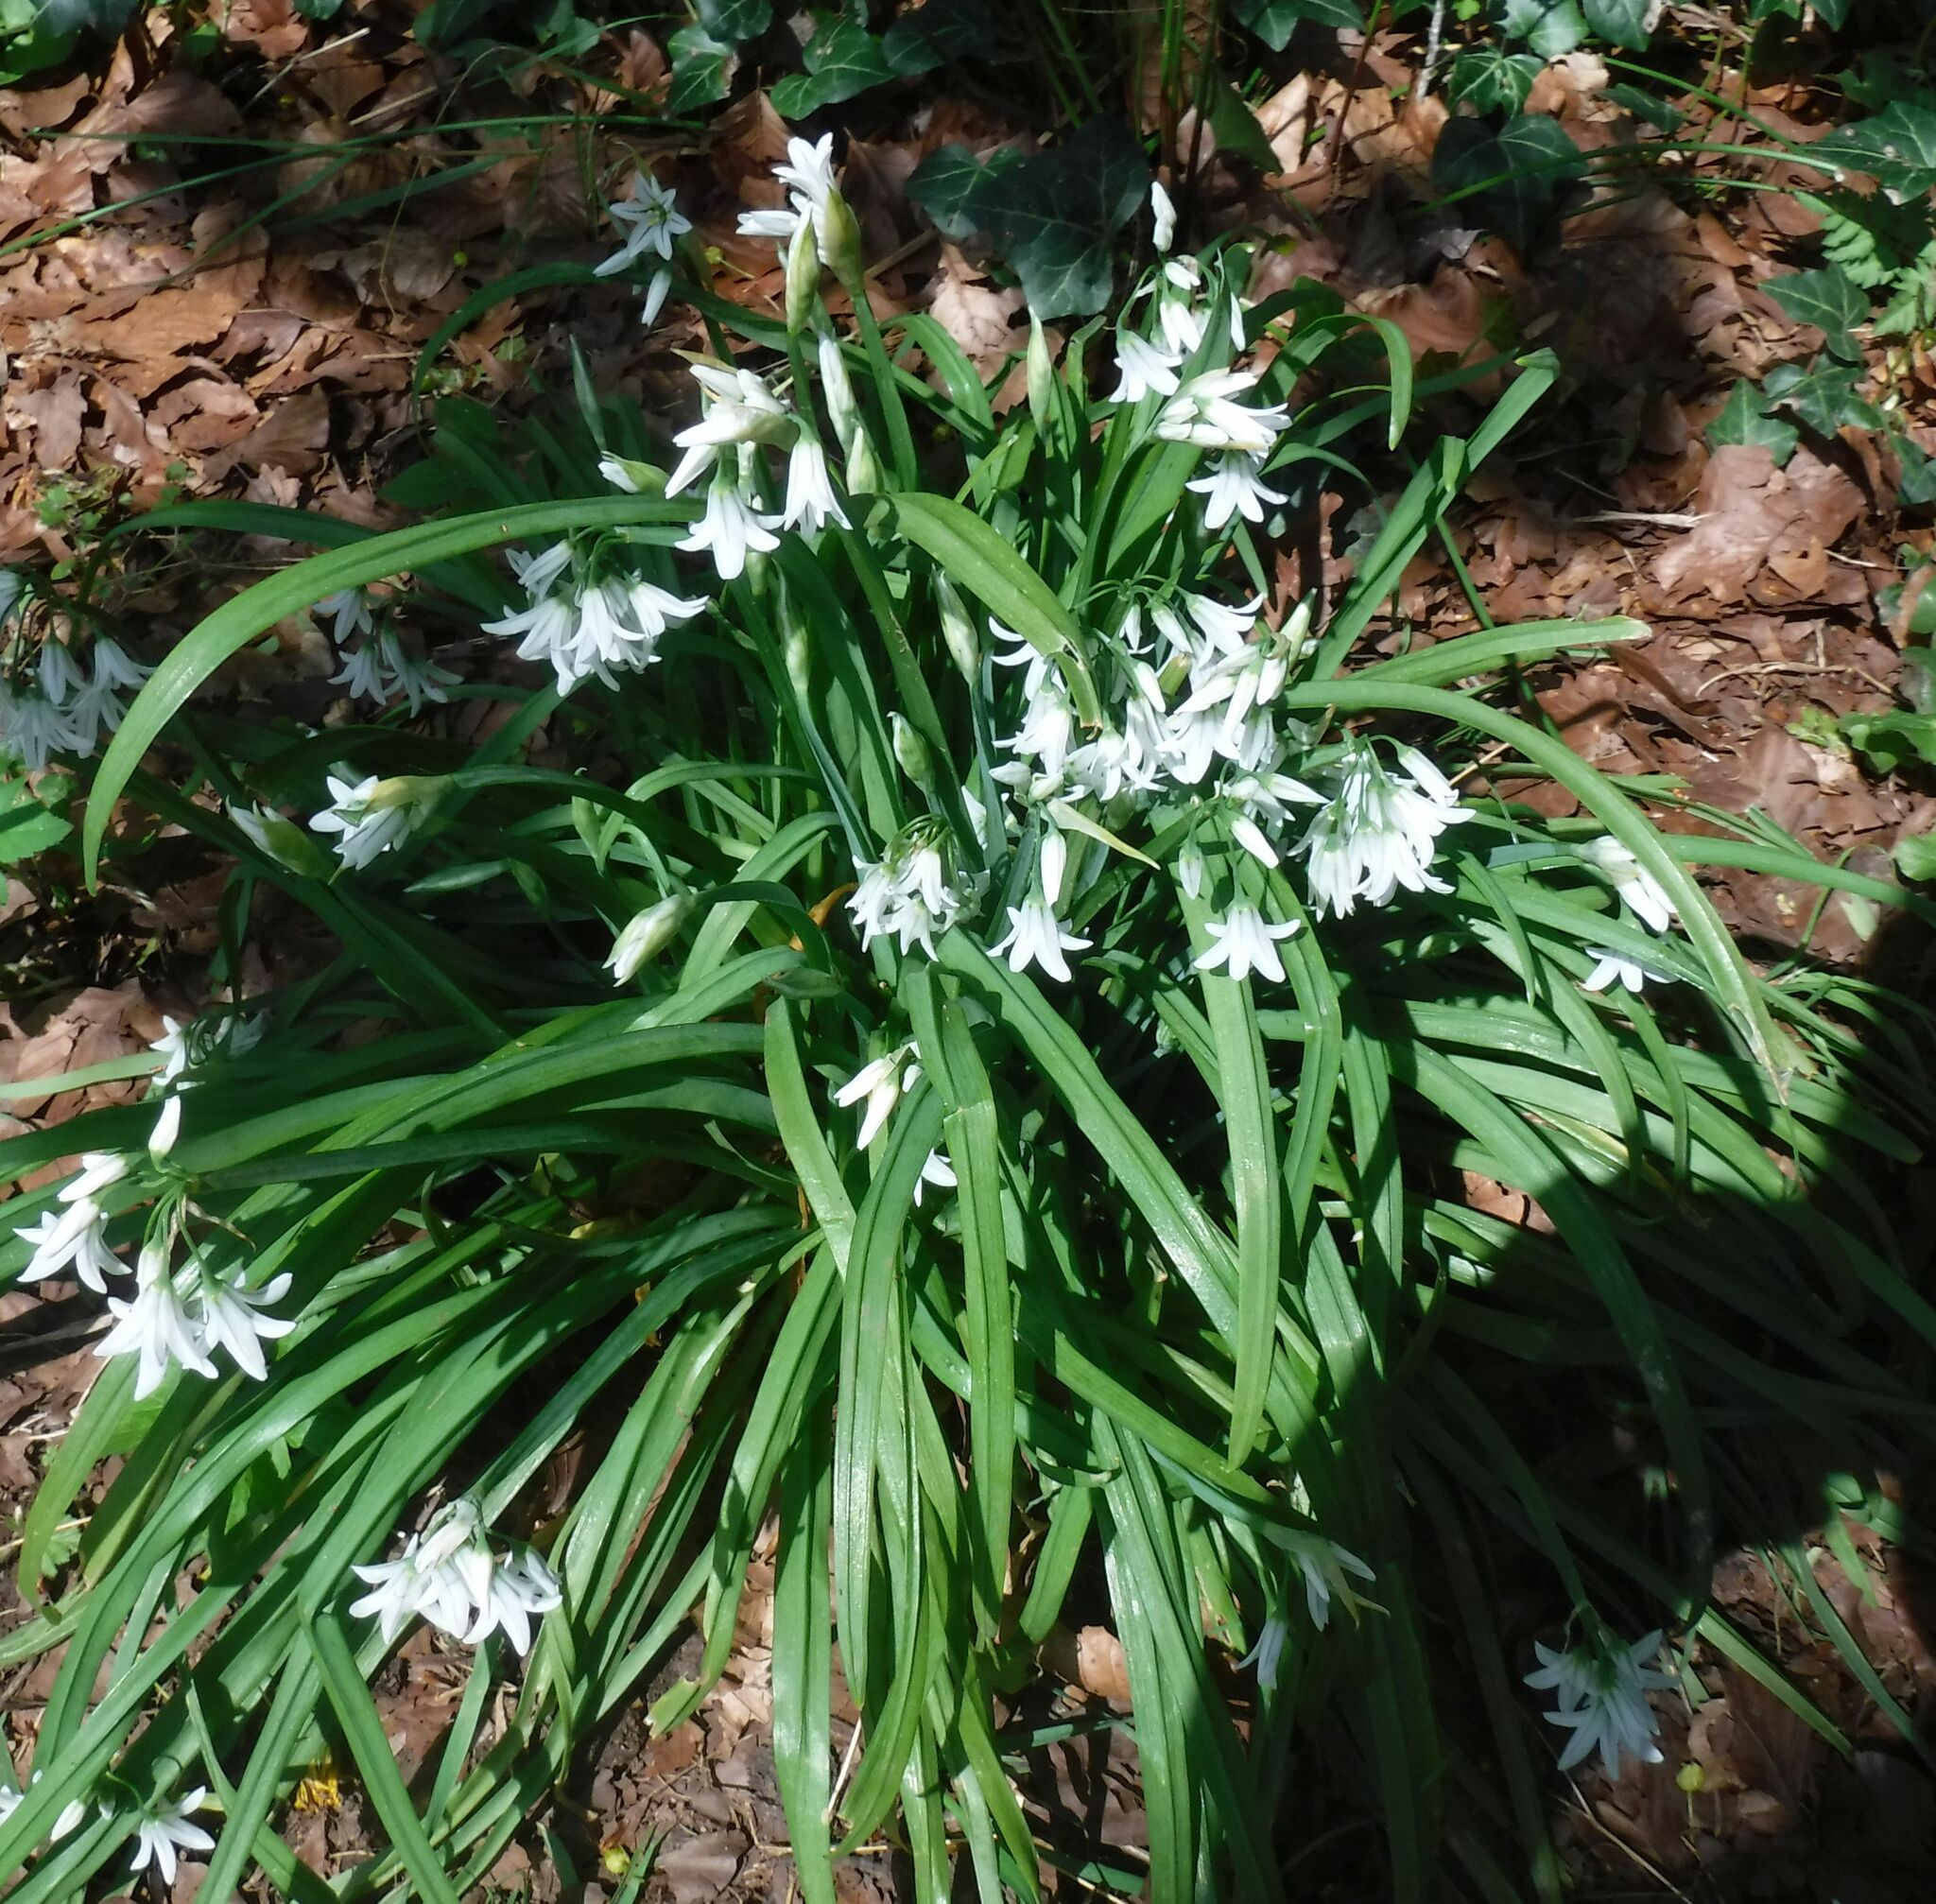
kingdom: Plantae
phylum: Tracheophyta
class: Liliopsida
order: Asparagales
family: Amaryllidaceae
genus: Allium
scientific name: Allium triquetrum
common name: Three-cornered garlic
